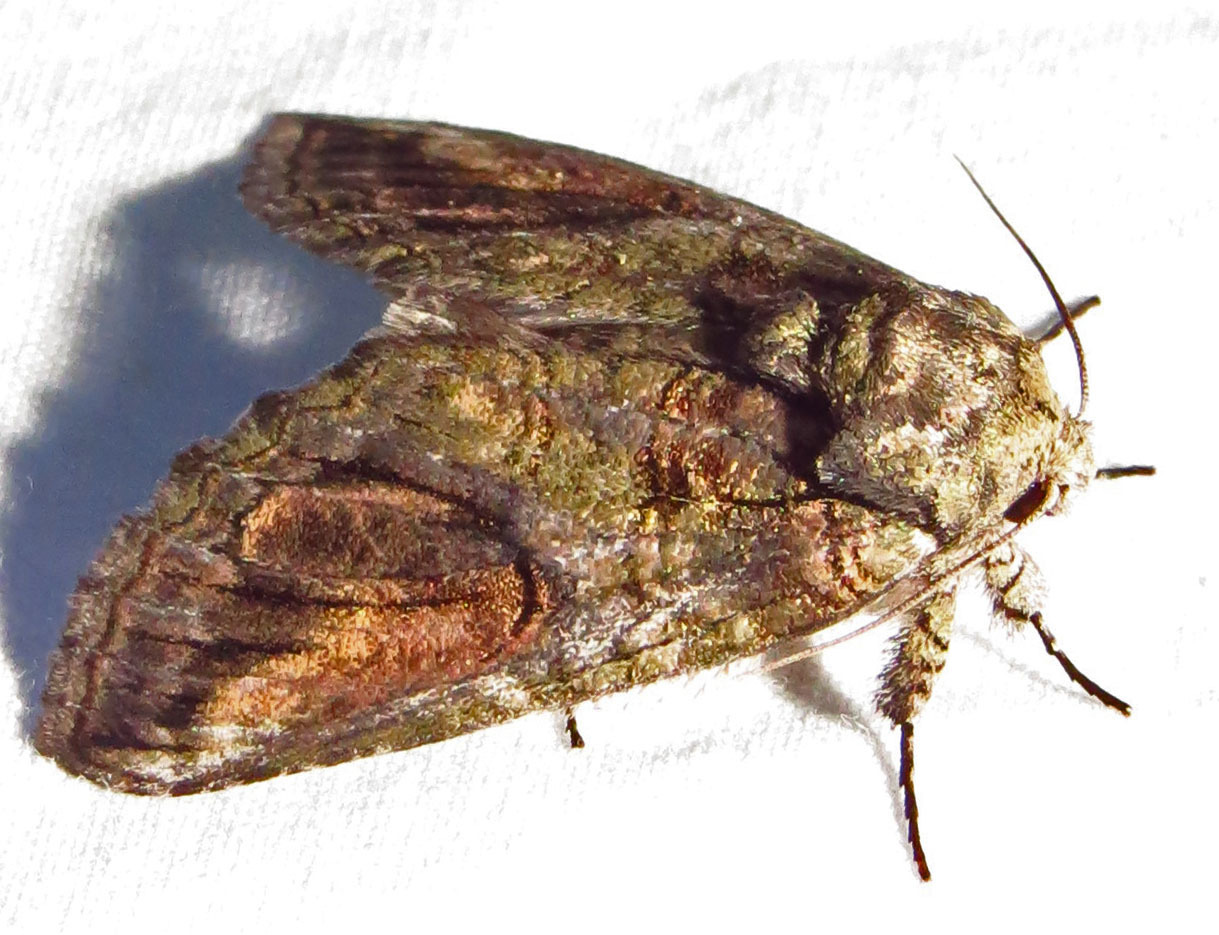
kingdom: Animalia
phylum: Arthropoda
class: Insecta
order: Lepidoptera
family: Notodontidae
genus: Heterocampa
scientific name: Heterocampa obliqua
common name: Oblique heterocampa
